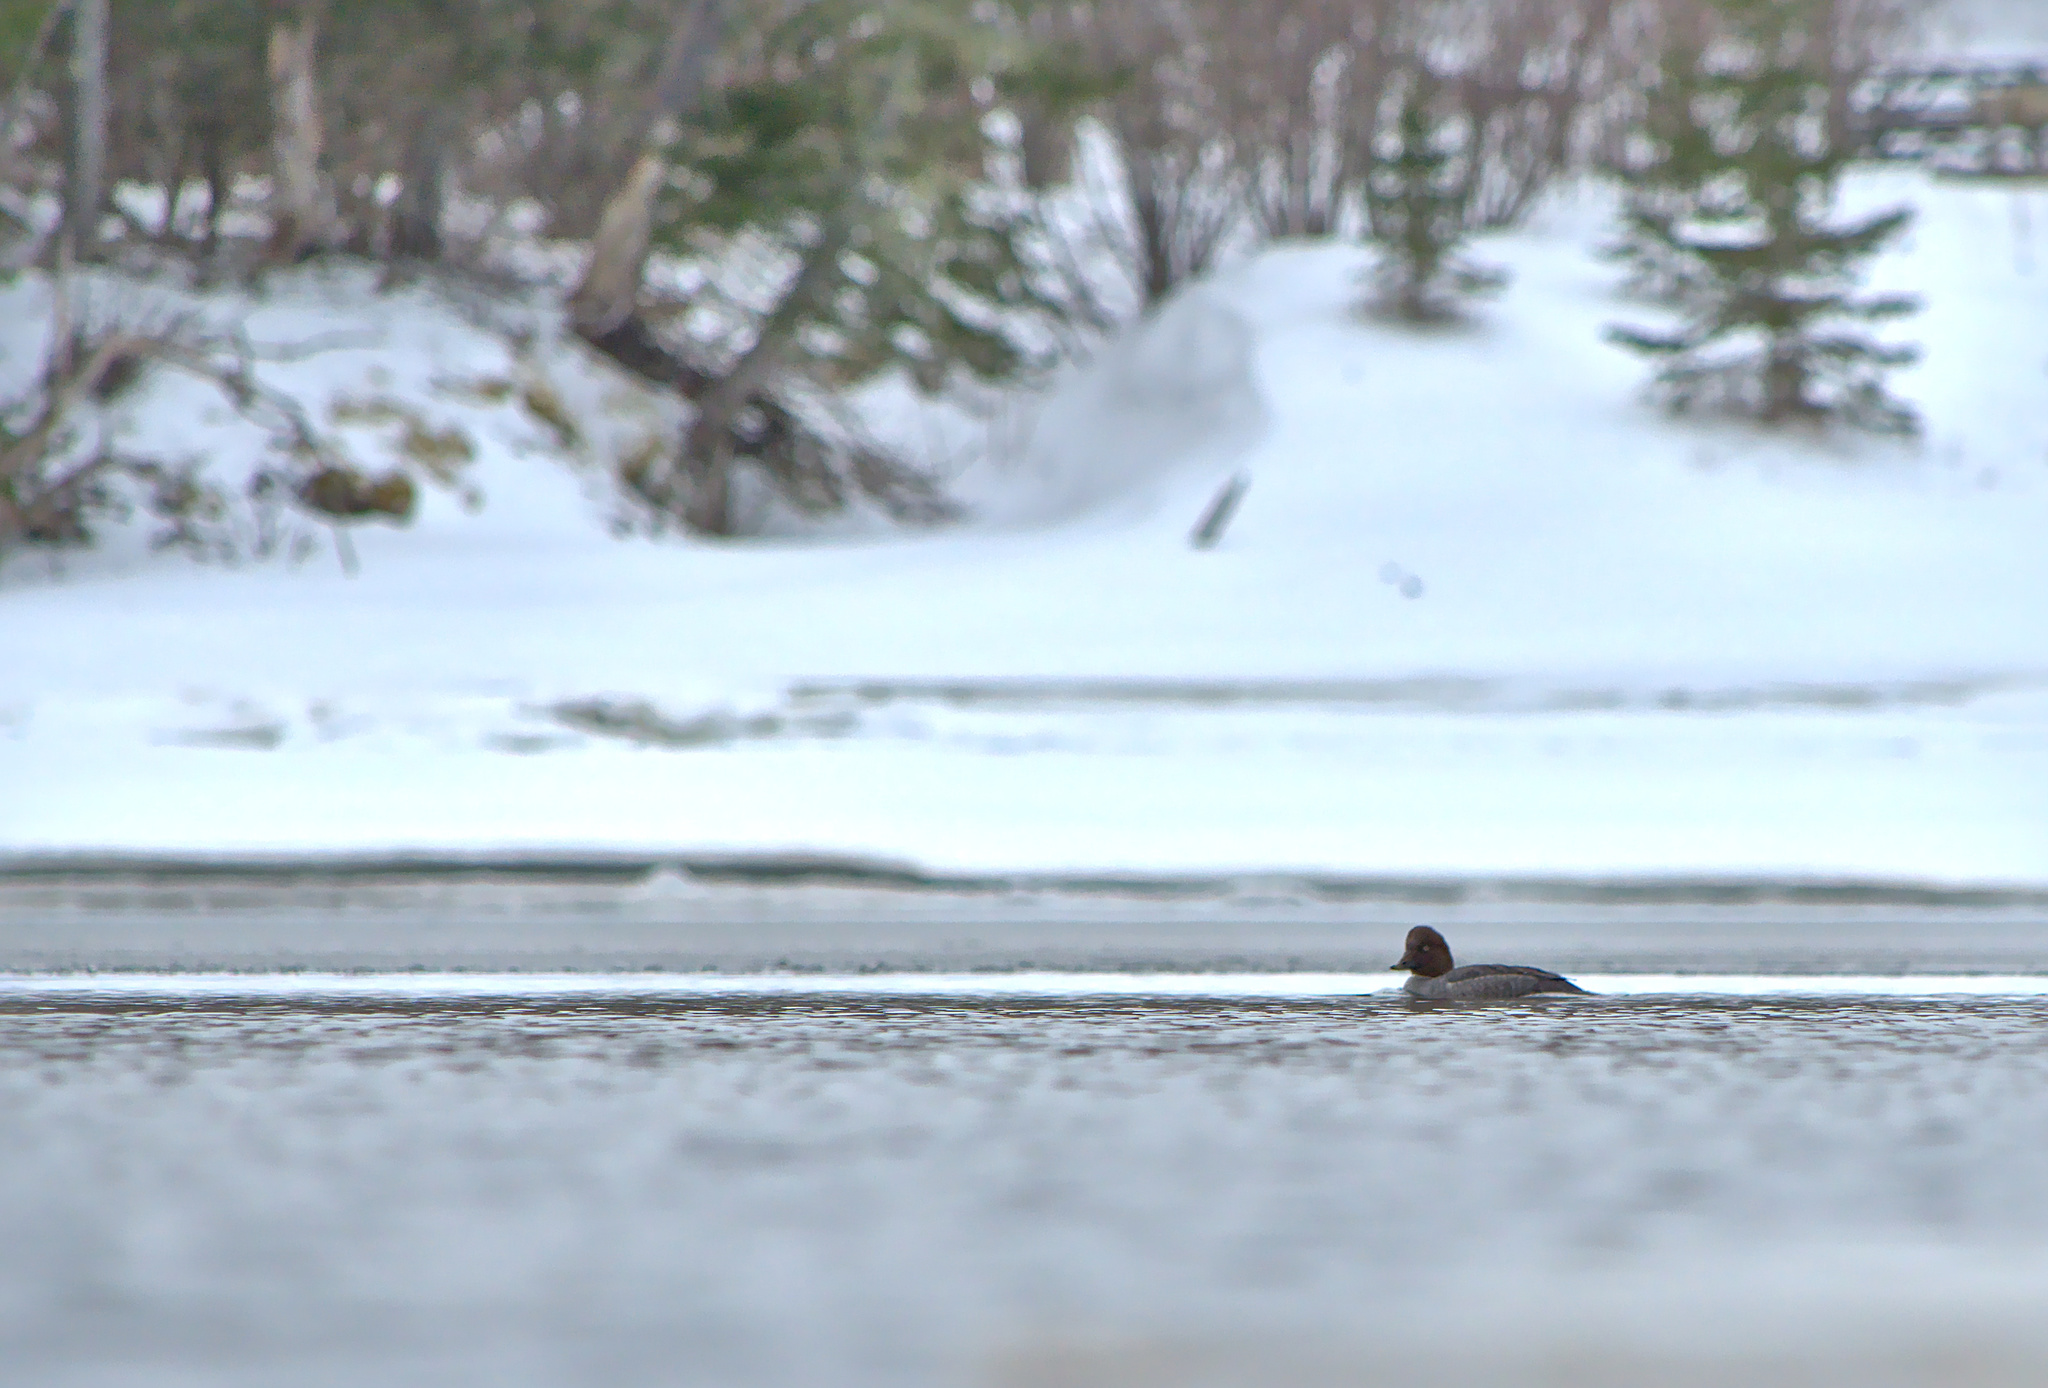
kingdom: Animalia
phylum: Chordata
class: Aves
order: Anseriformes
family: Anatidae
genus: Bucephala
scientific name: Bucephala clangula
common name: Common goldeneye
